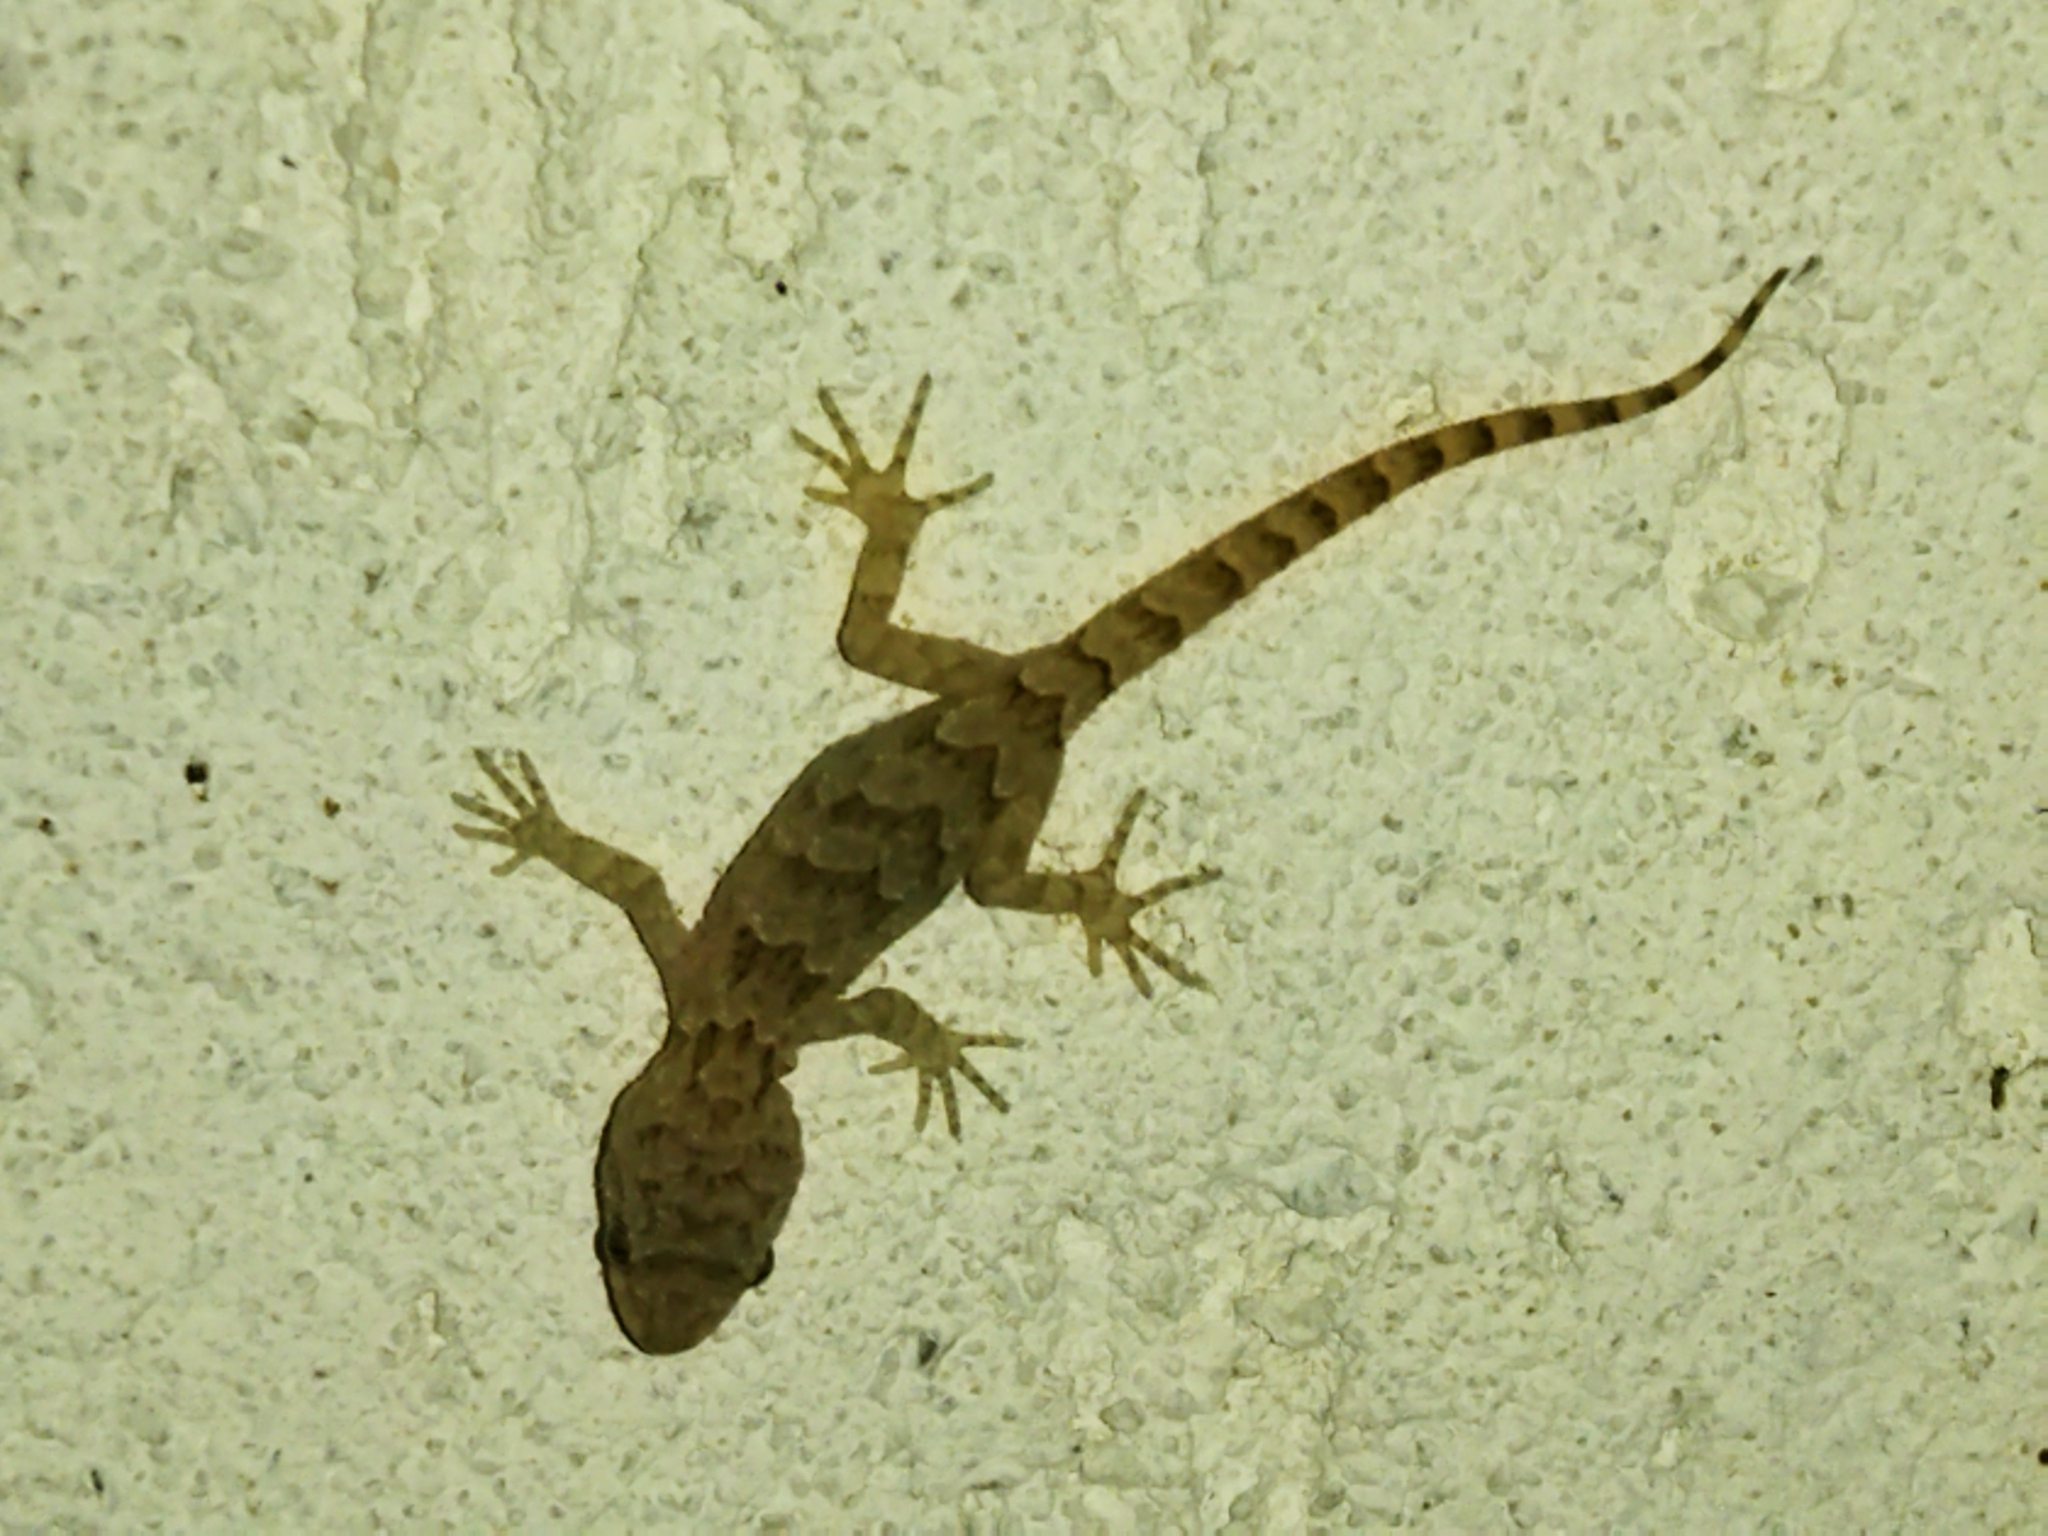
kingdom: Animalia
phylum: Chordata
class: Squamata
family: Gekkonidae
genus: Mediodactylus
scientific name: Mediodactylus kotschyi
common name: Kotschy's gecko
